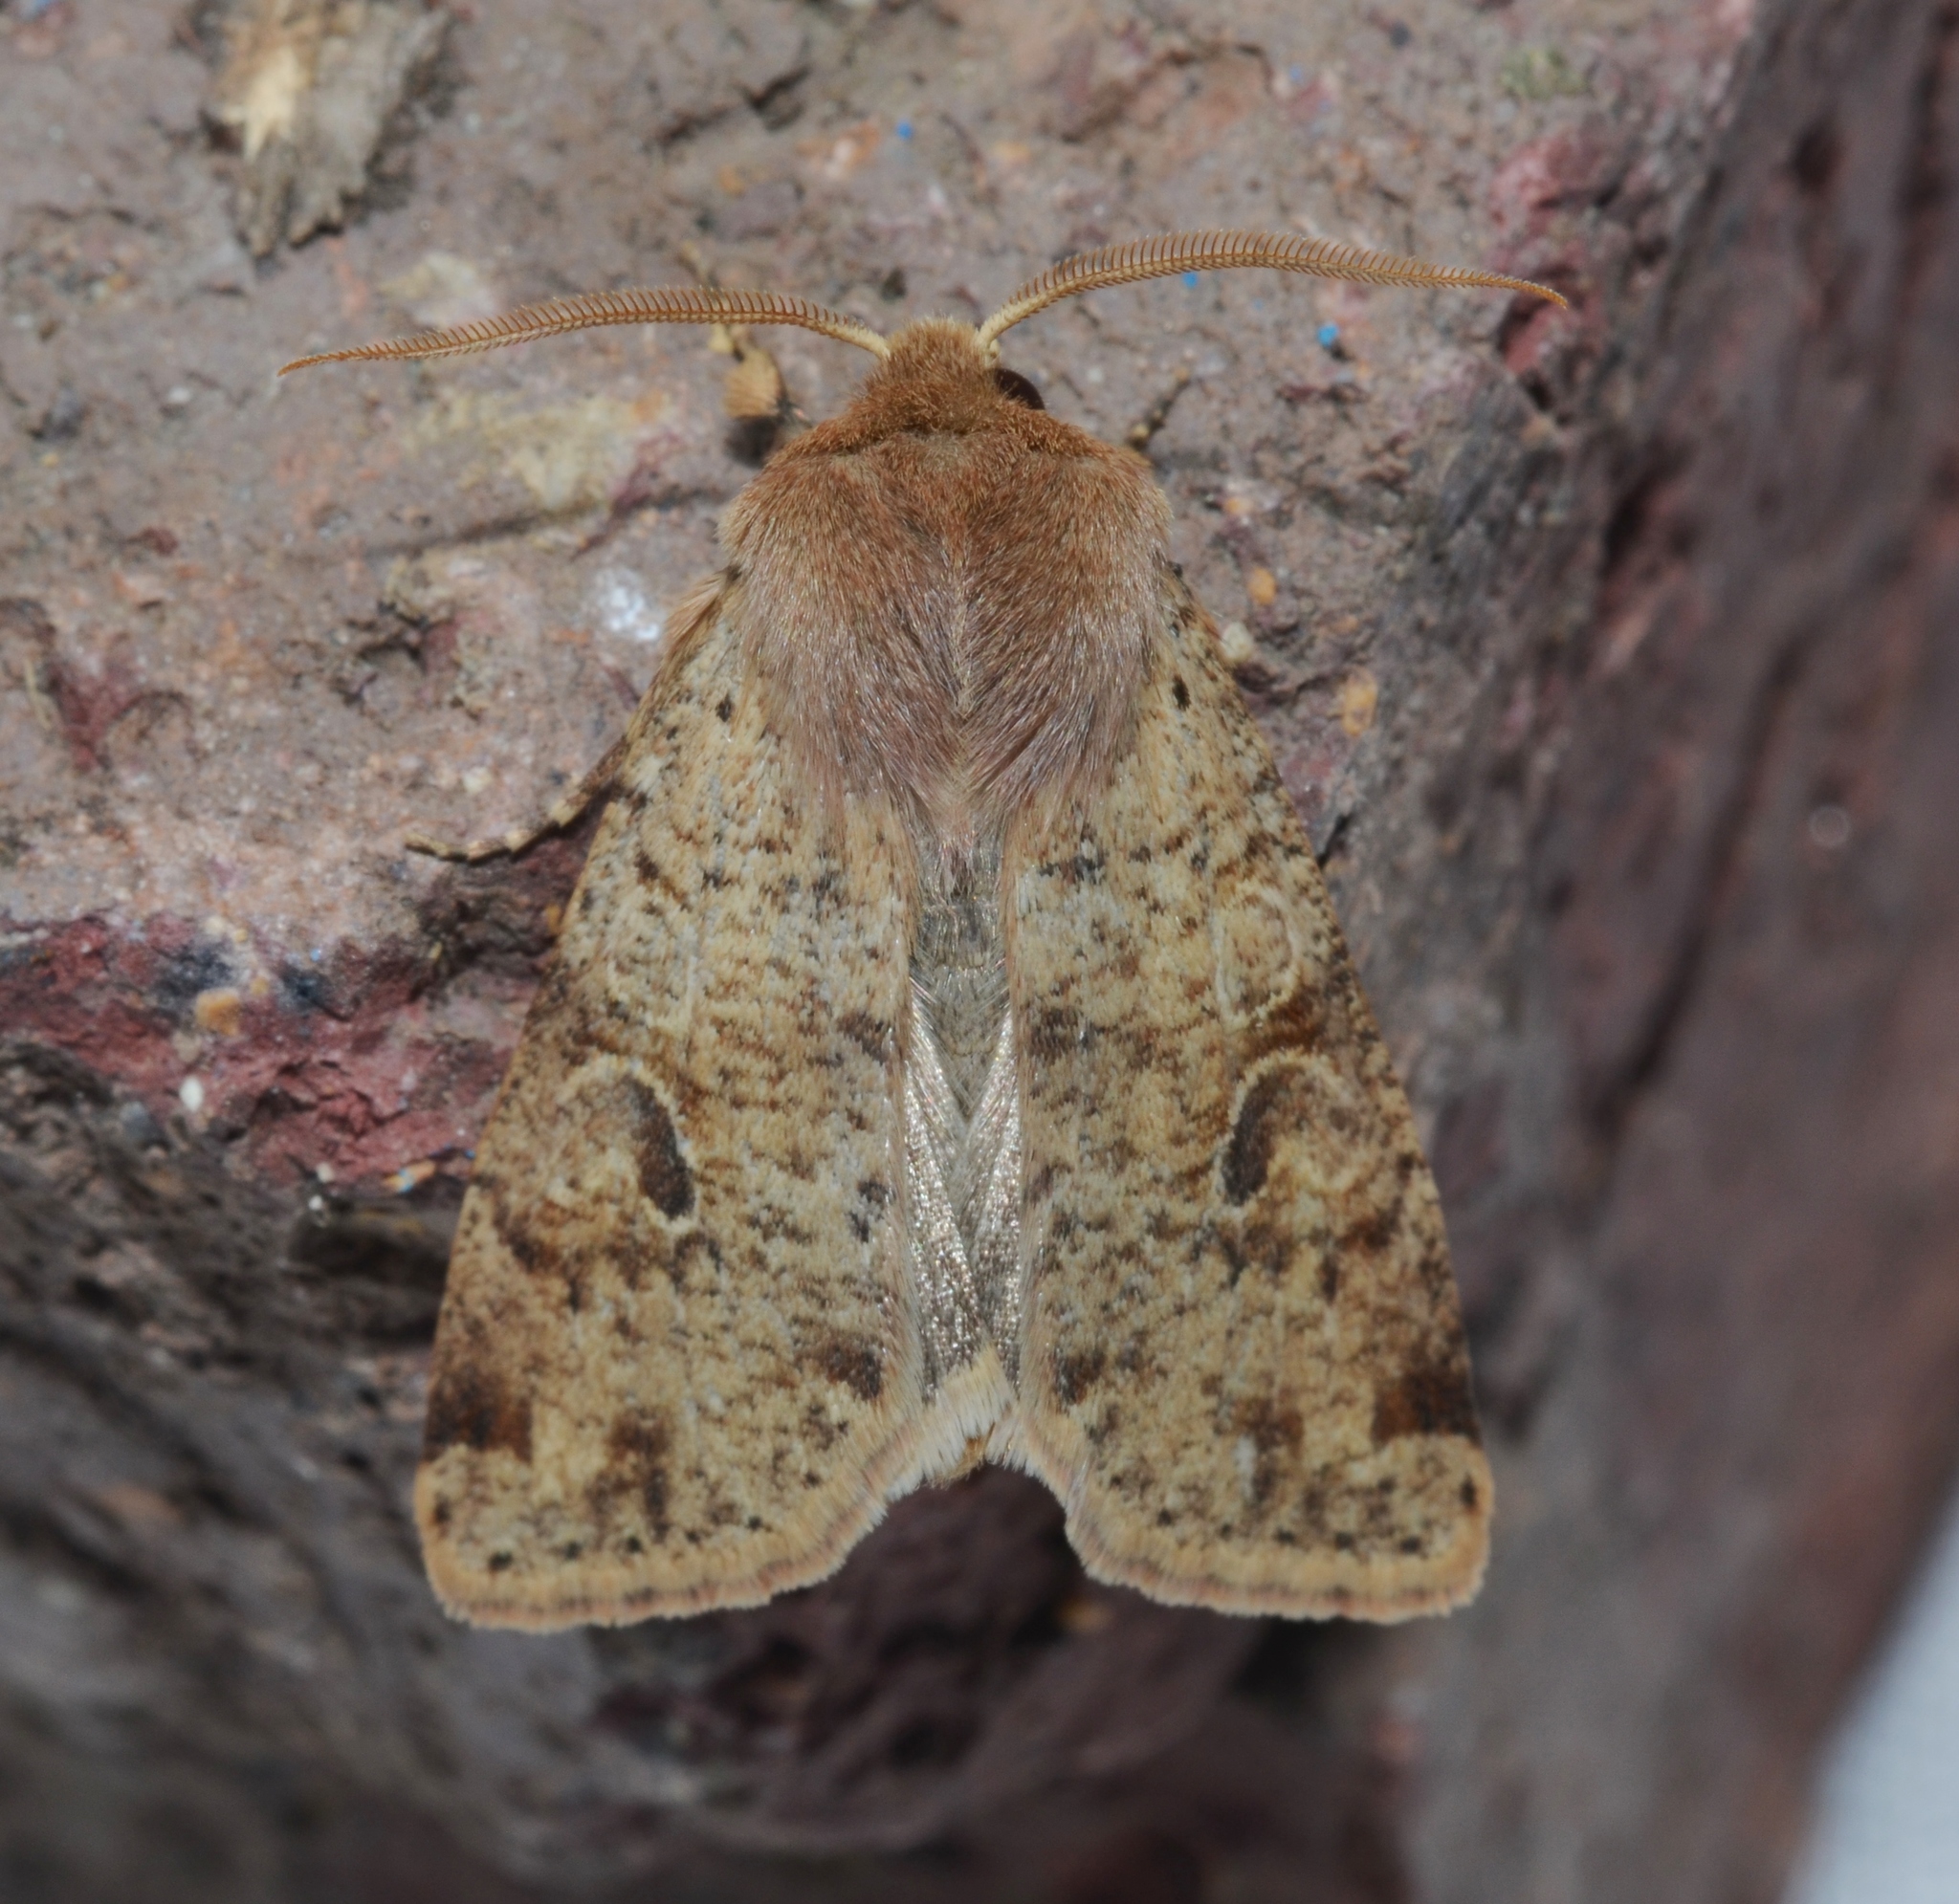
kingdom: Animalia
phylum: Arthropoda
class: Insecta
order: Lepidoptera
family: Noctuidae
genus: Orthosia
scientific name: Orthosia rubescens
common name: Ruby quaker
